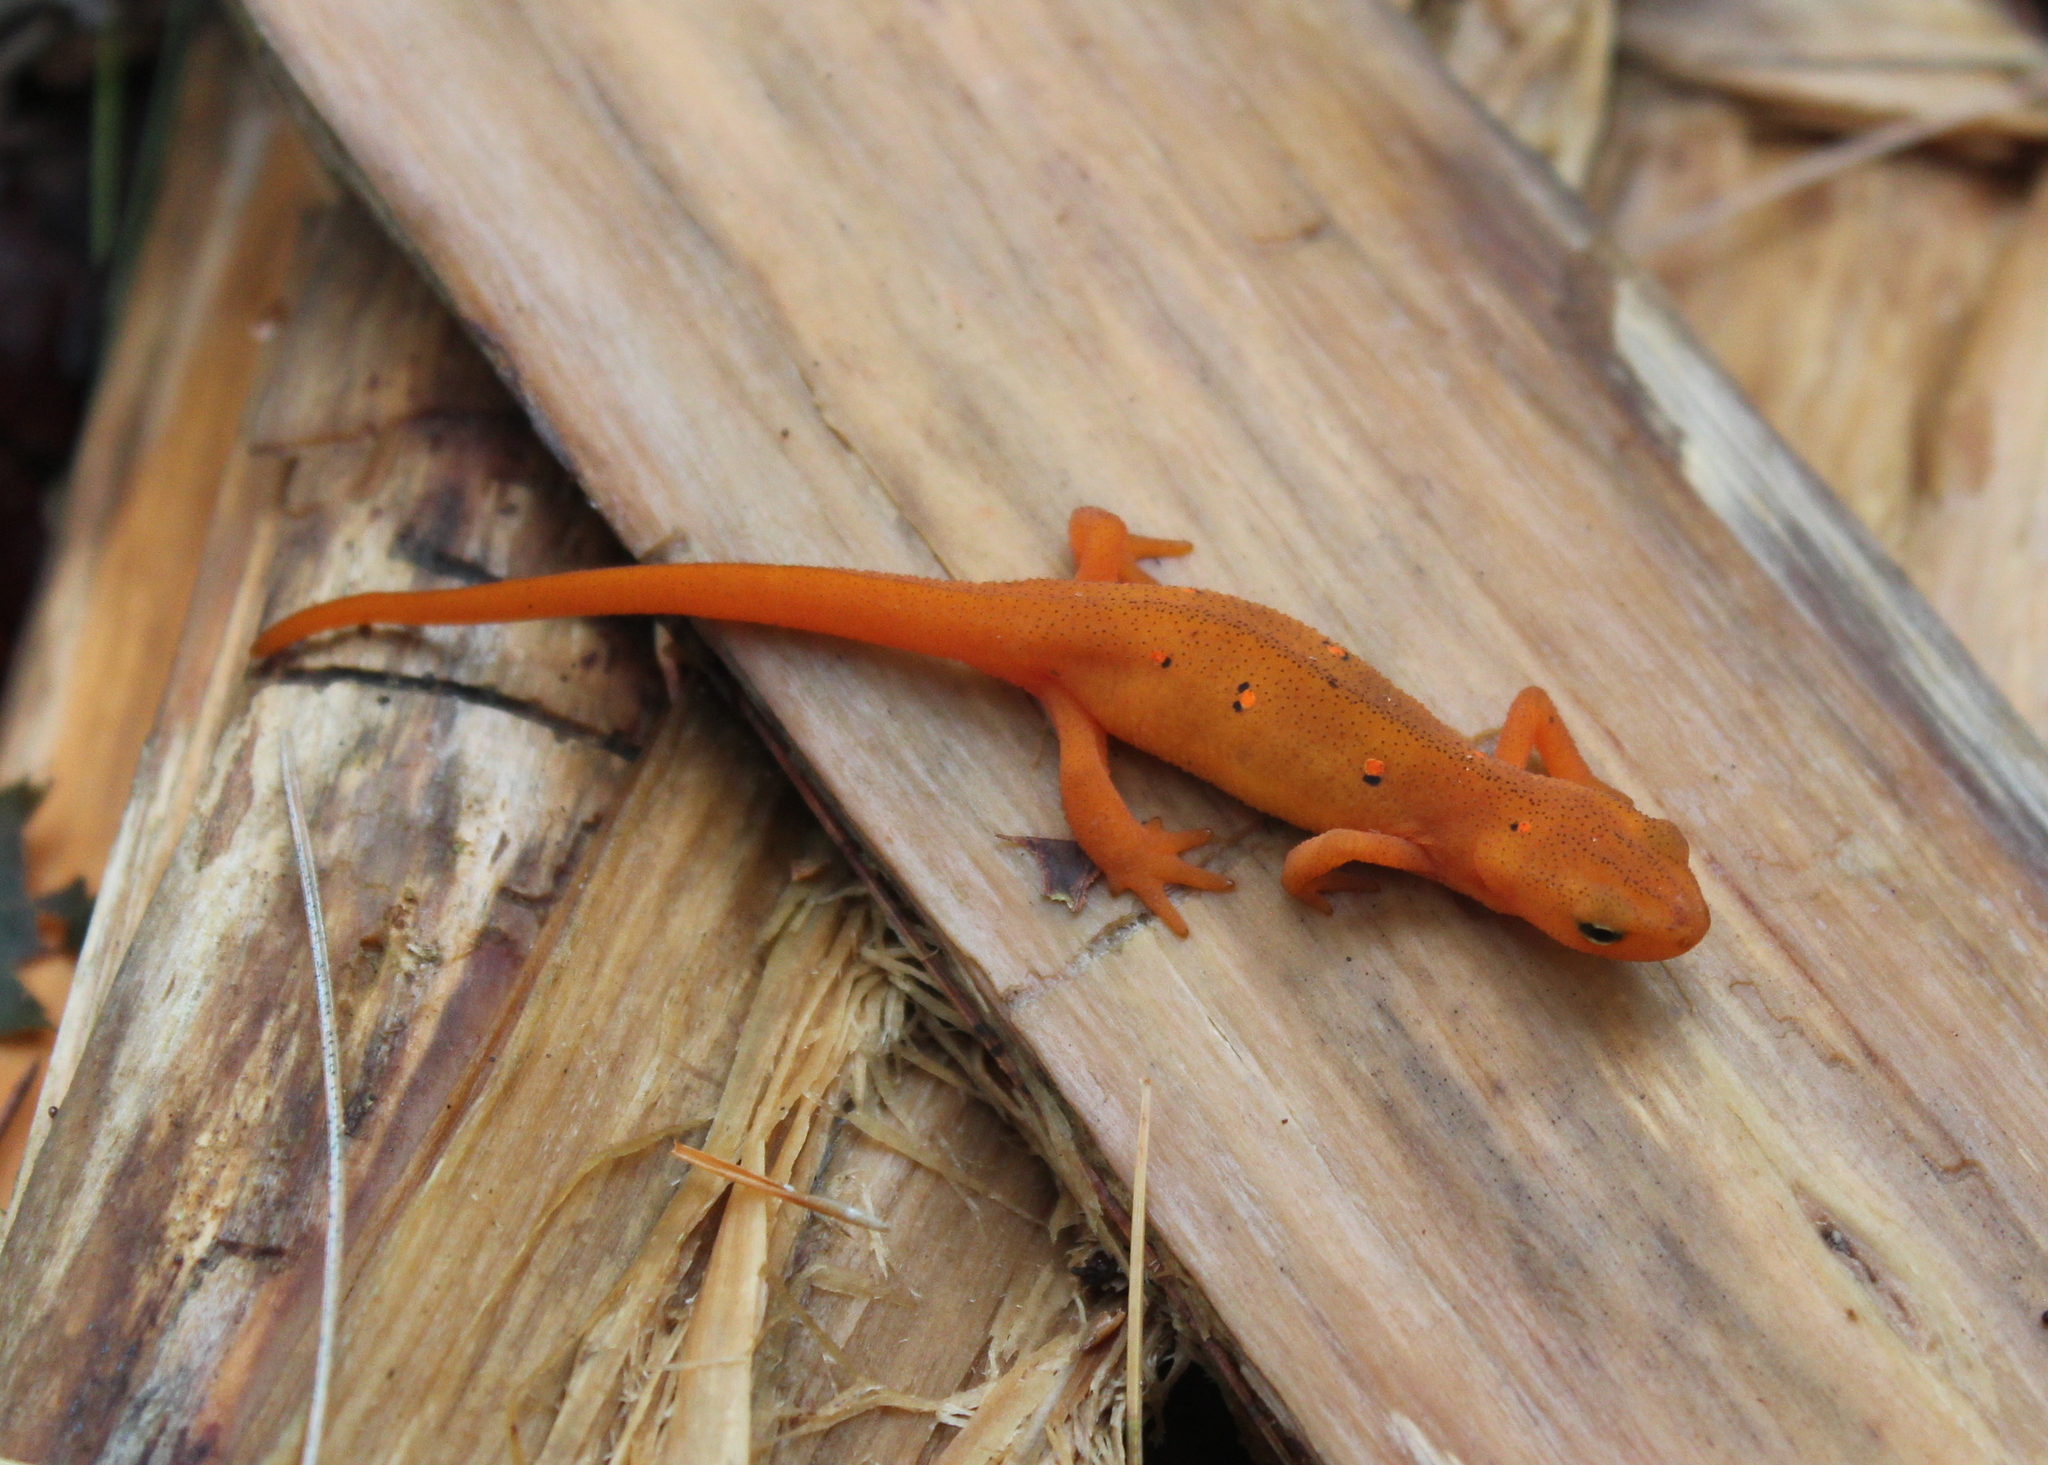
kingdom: Animalia
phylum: Chordata
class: Amphibia
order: Caudata
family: Salamandridae
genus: Notophthalmus
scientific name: Notophthalmus viridescens
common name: Eastern newt
